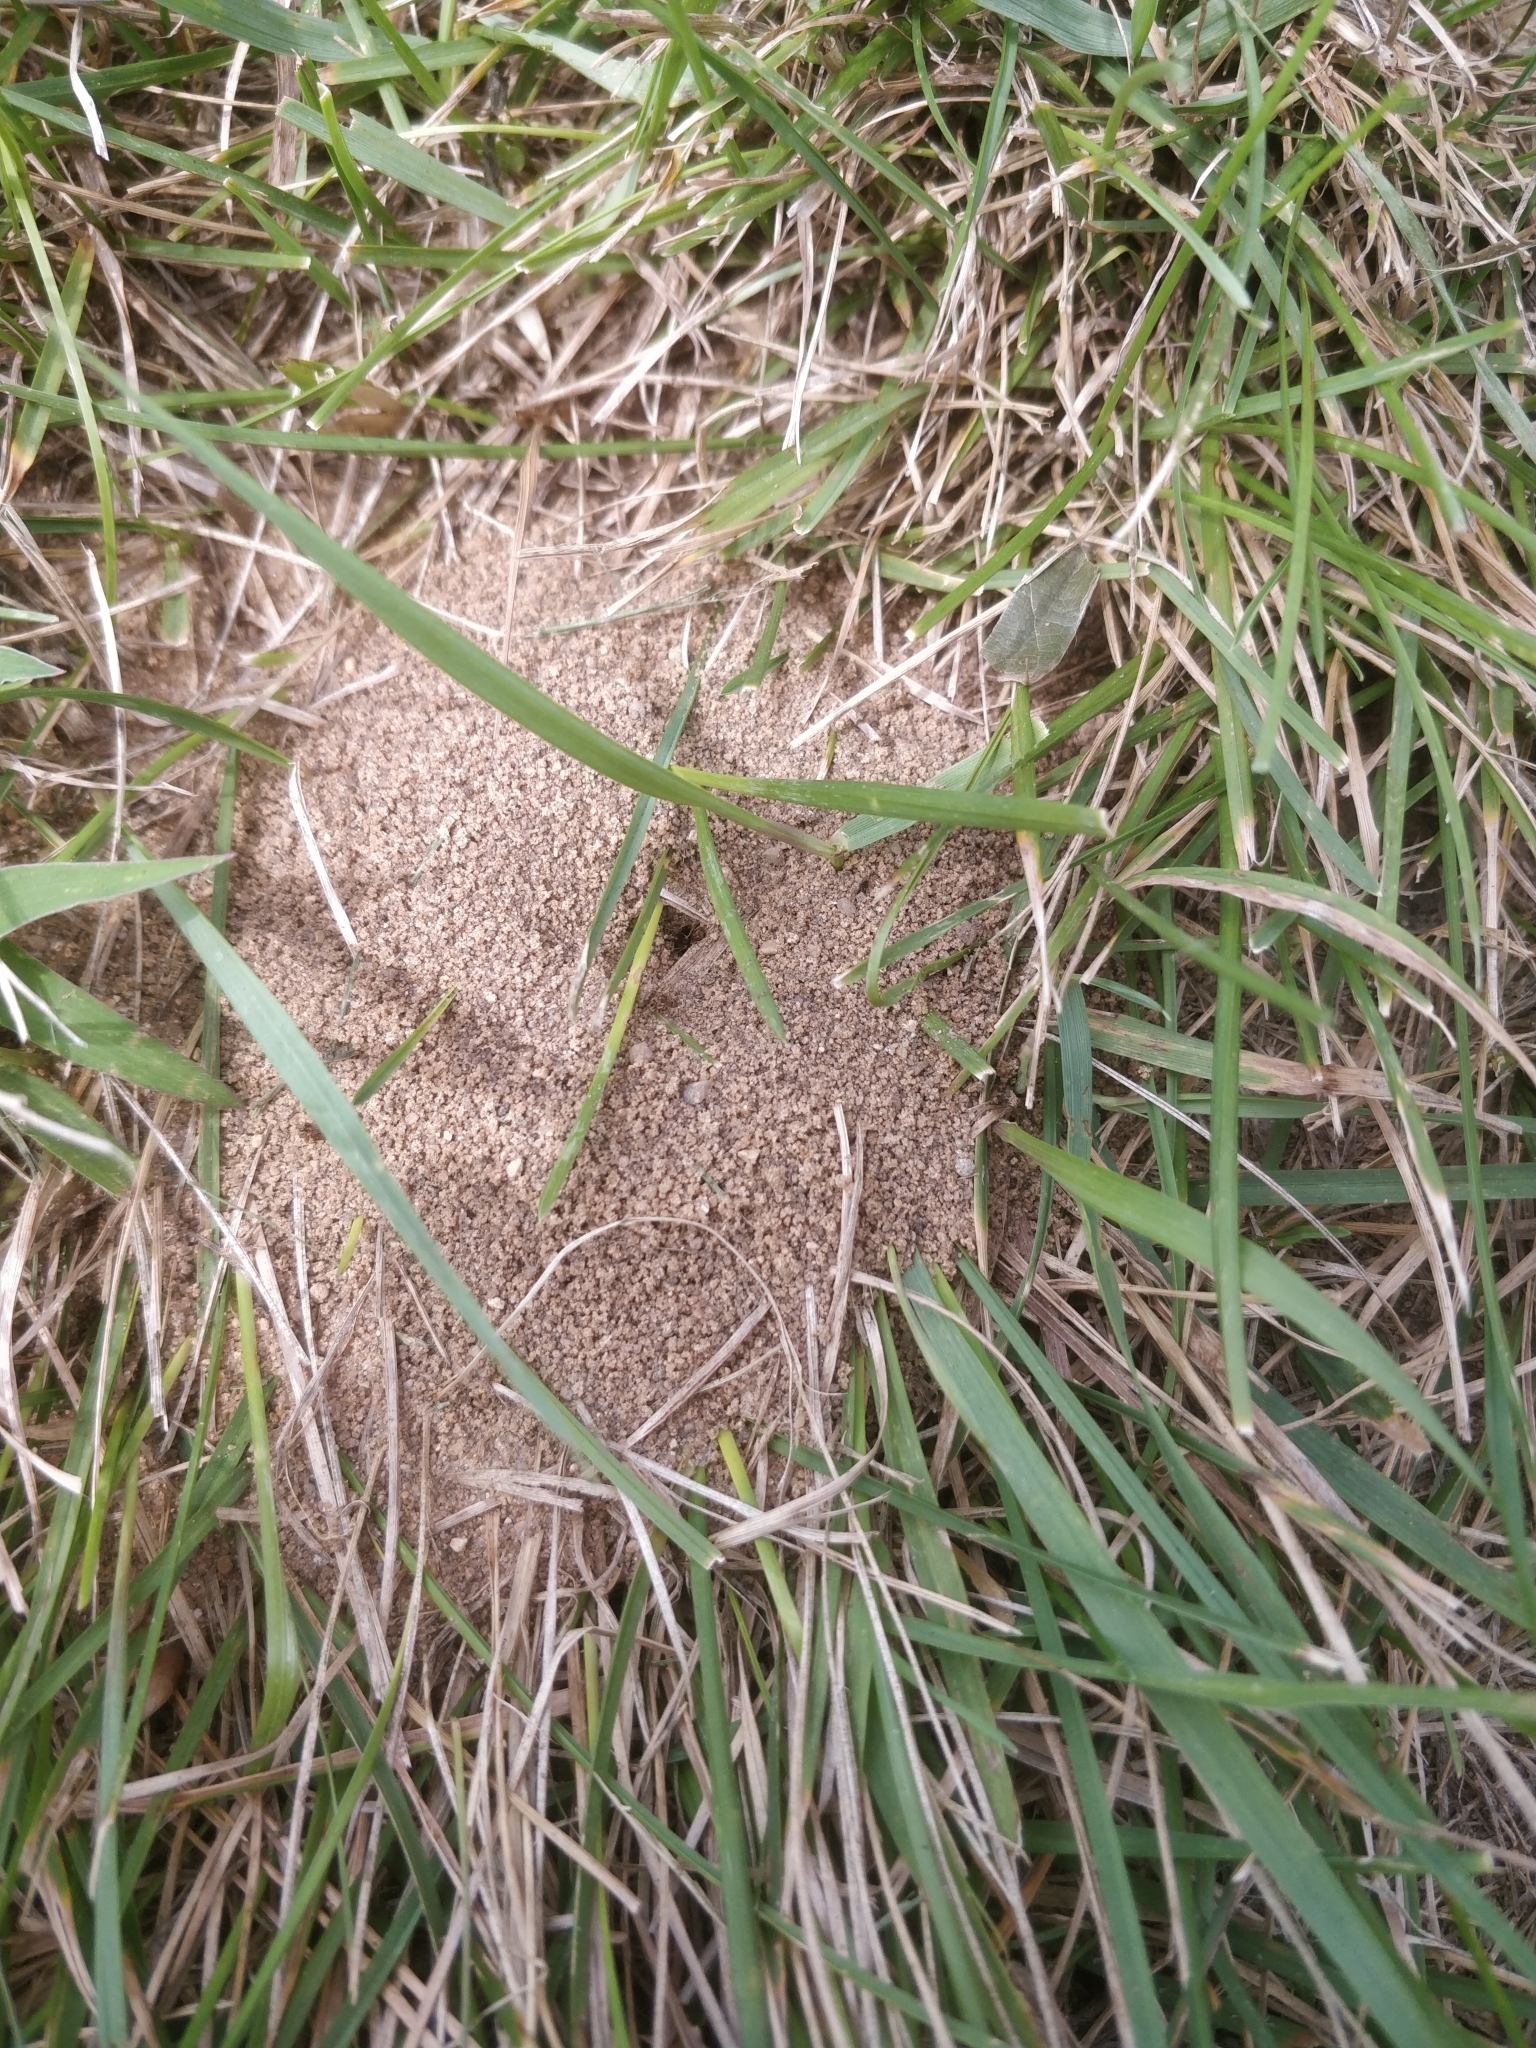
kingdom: Animalia
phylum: Arthropoda
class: Insecta
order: Hymenoptera
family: Formicidae
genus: Lasius
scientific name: Lasius neoniger
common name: Turfgrass ant
